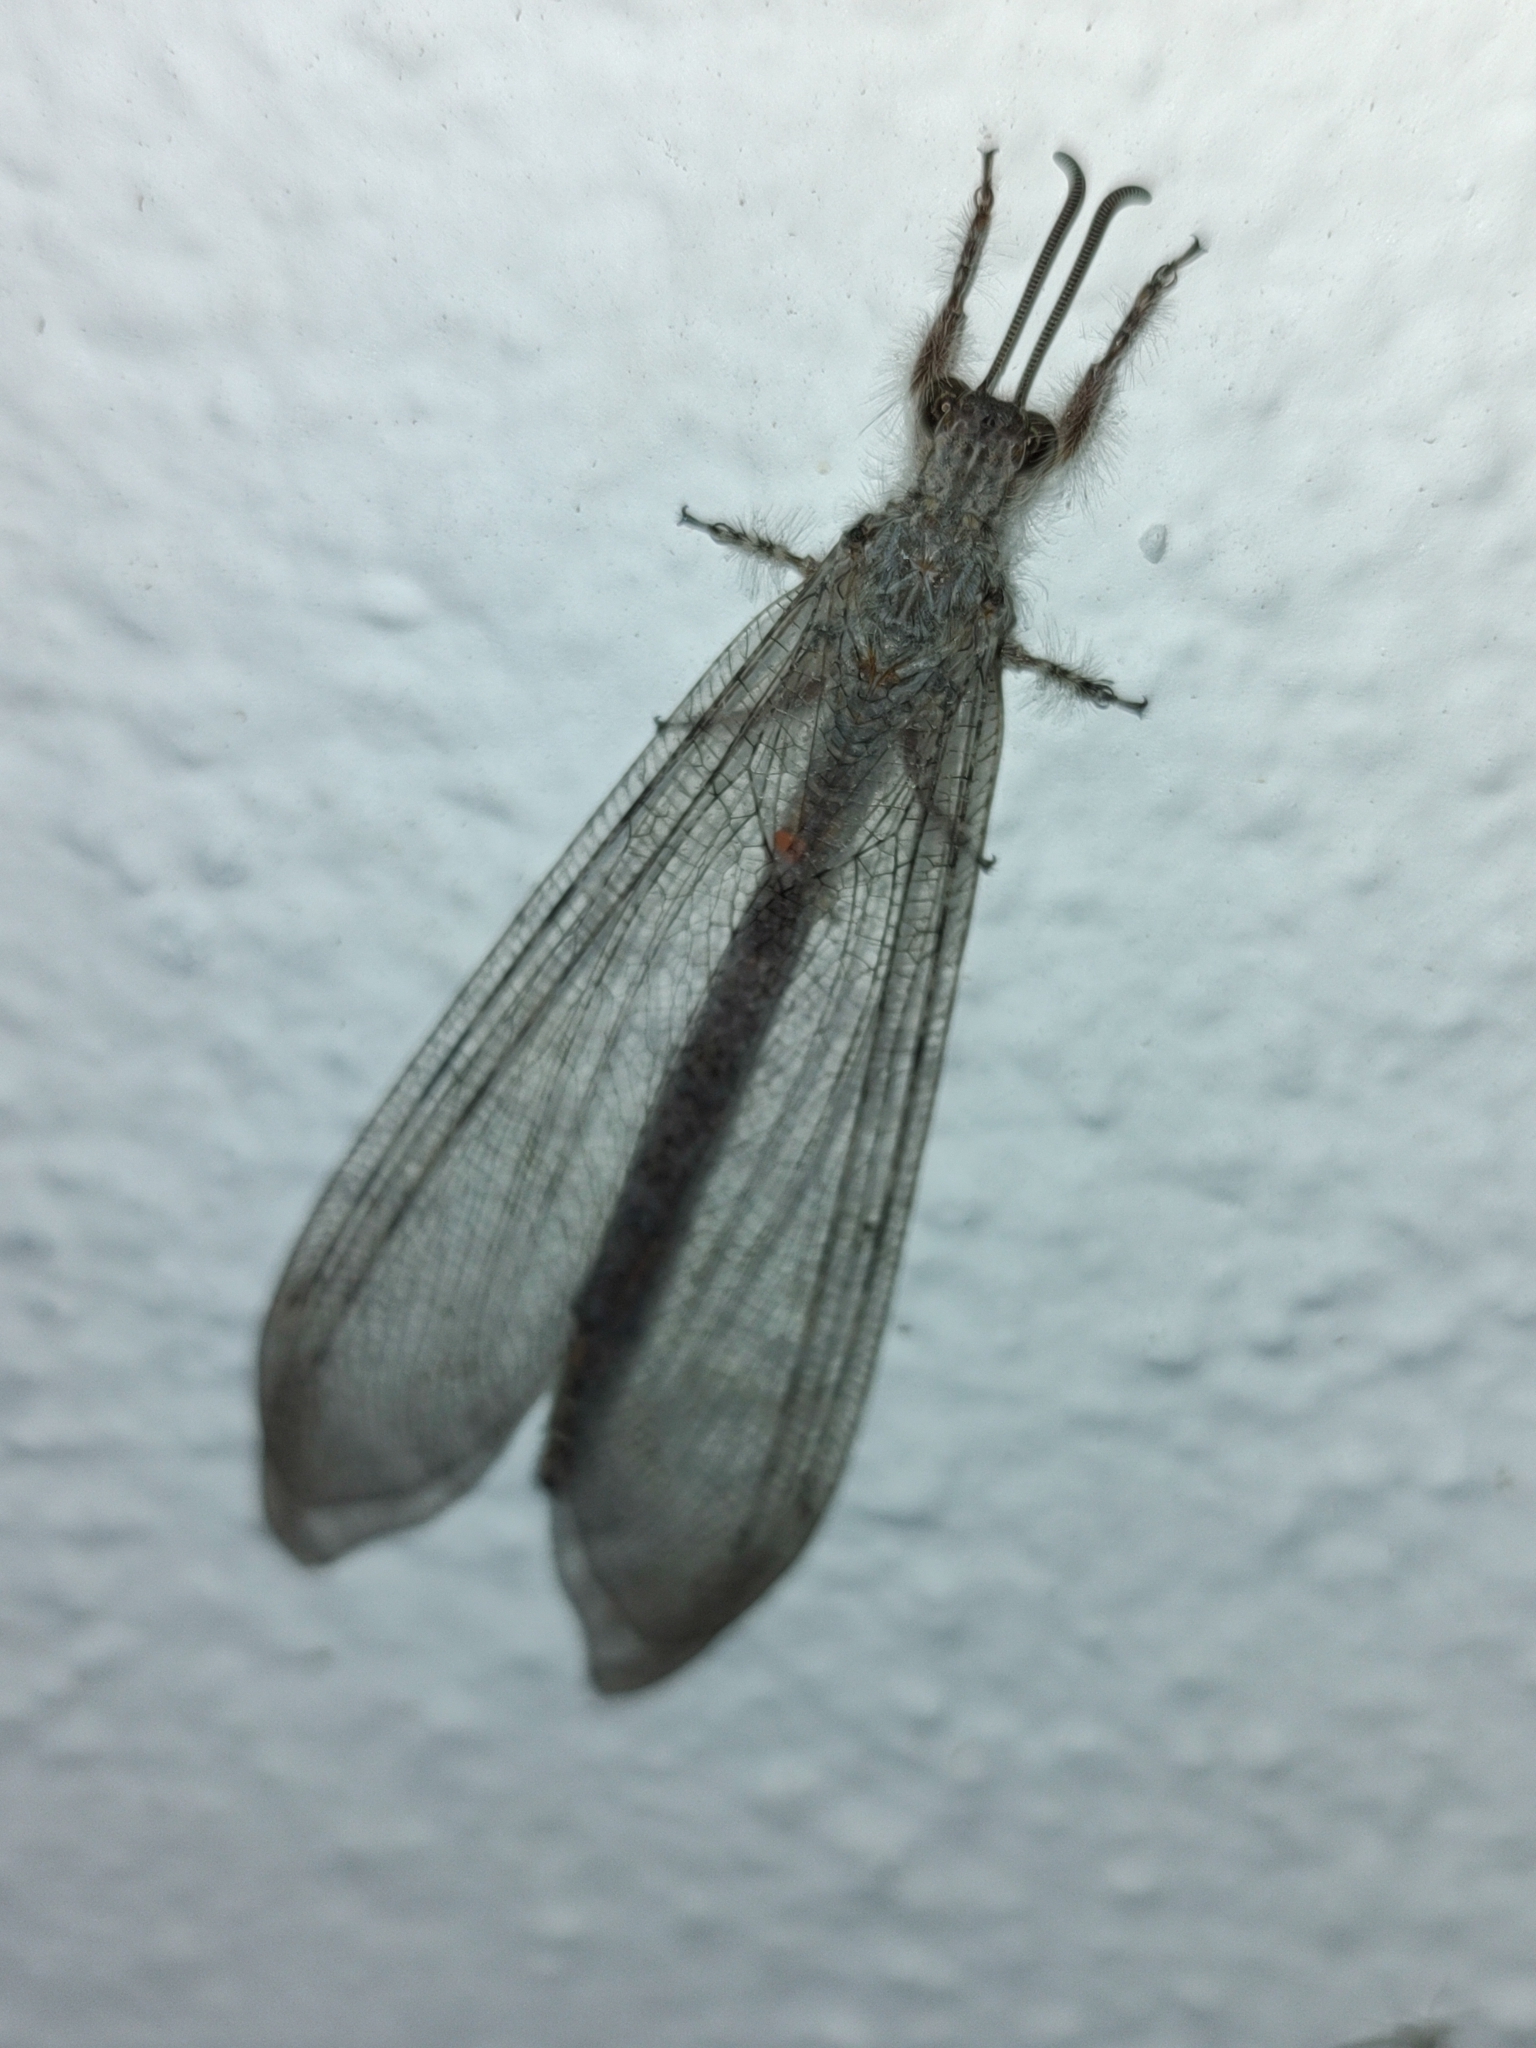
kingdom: Animalia
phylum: Arthropoda
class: Insecta
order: Neuroptera
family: Myrmeleontidae
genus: Vella
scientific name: Vella fallax
